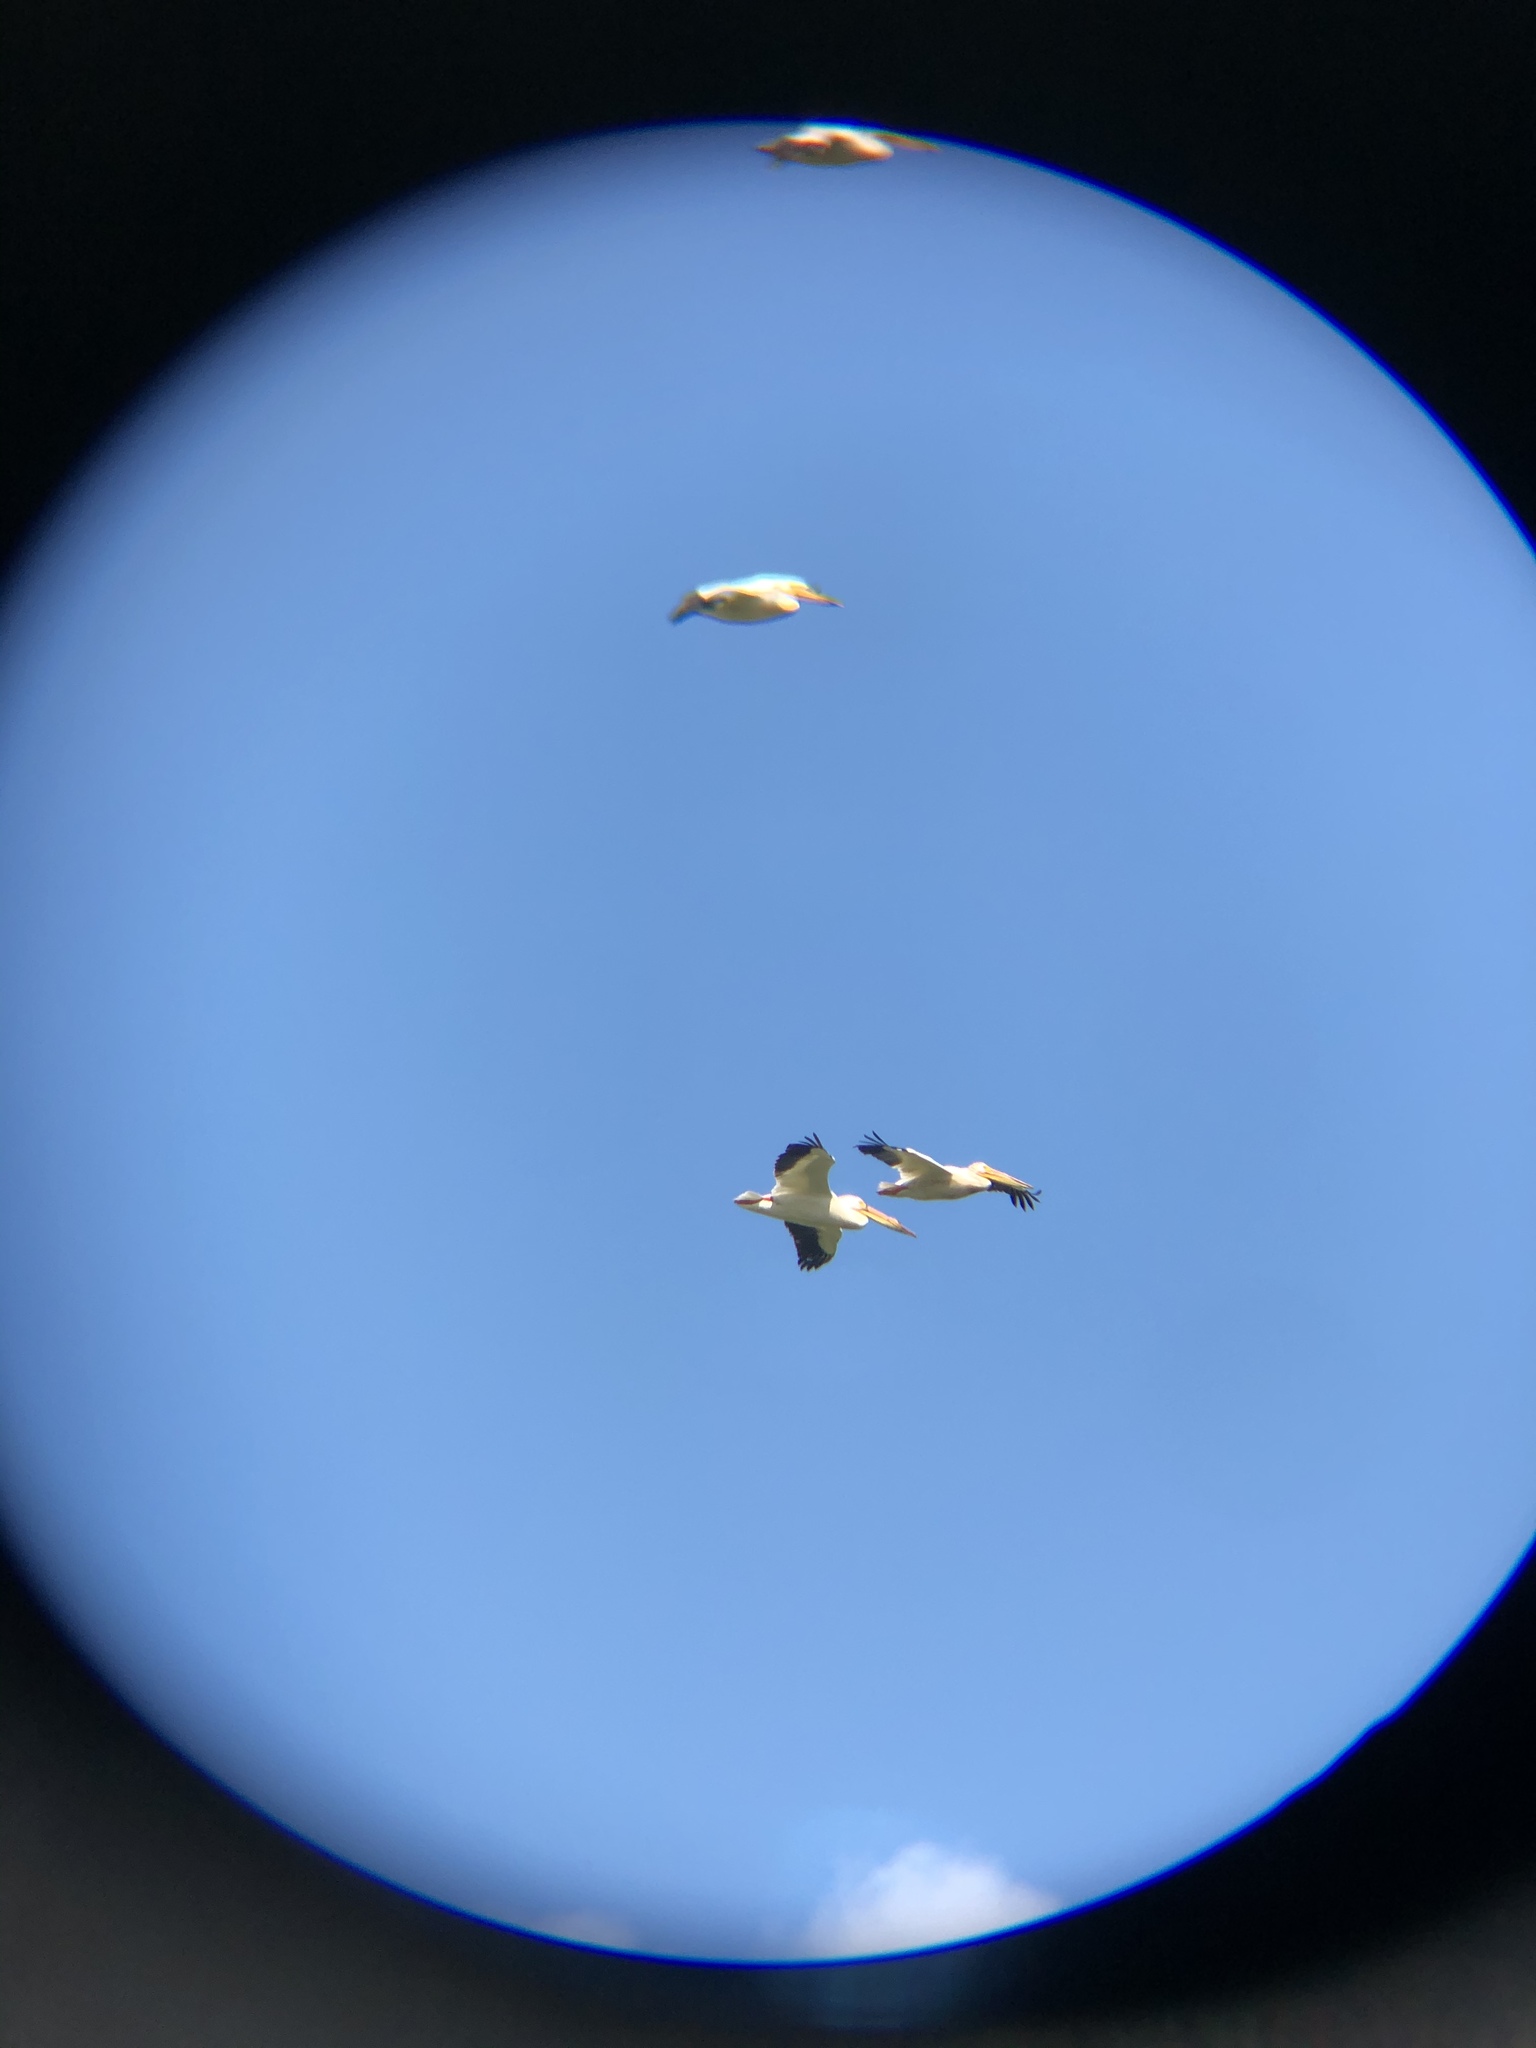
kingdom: Animalia
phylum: Chordata
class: Aves
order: Pelecaniformes
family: Pelecanidae
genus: Pelecanus
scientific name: Pelecanus erythrorhynchos
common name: American white pelican
